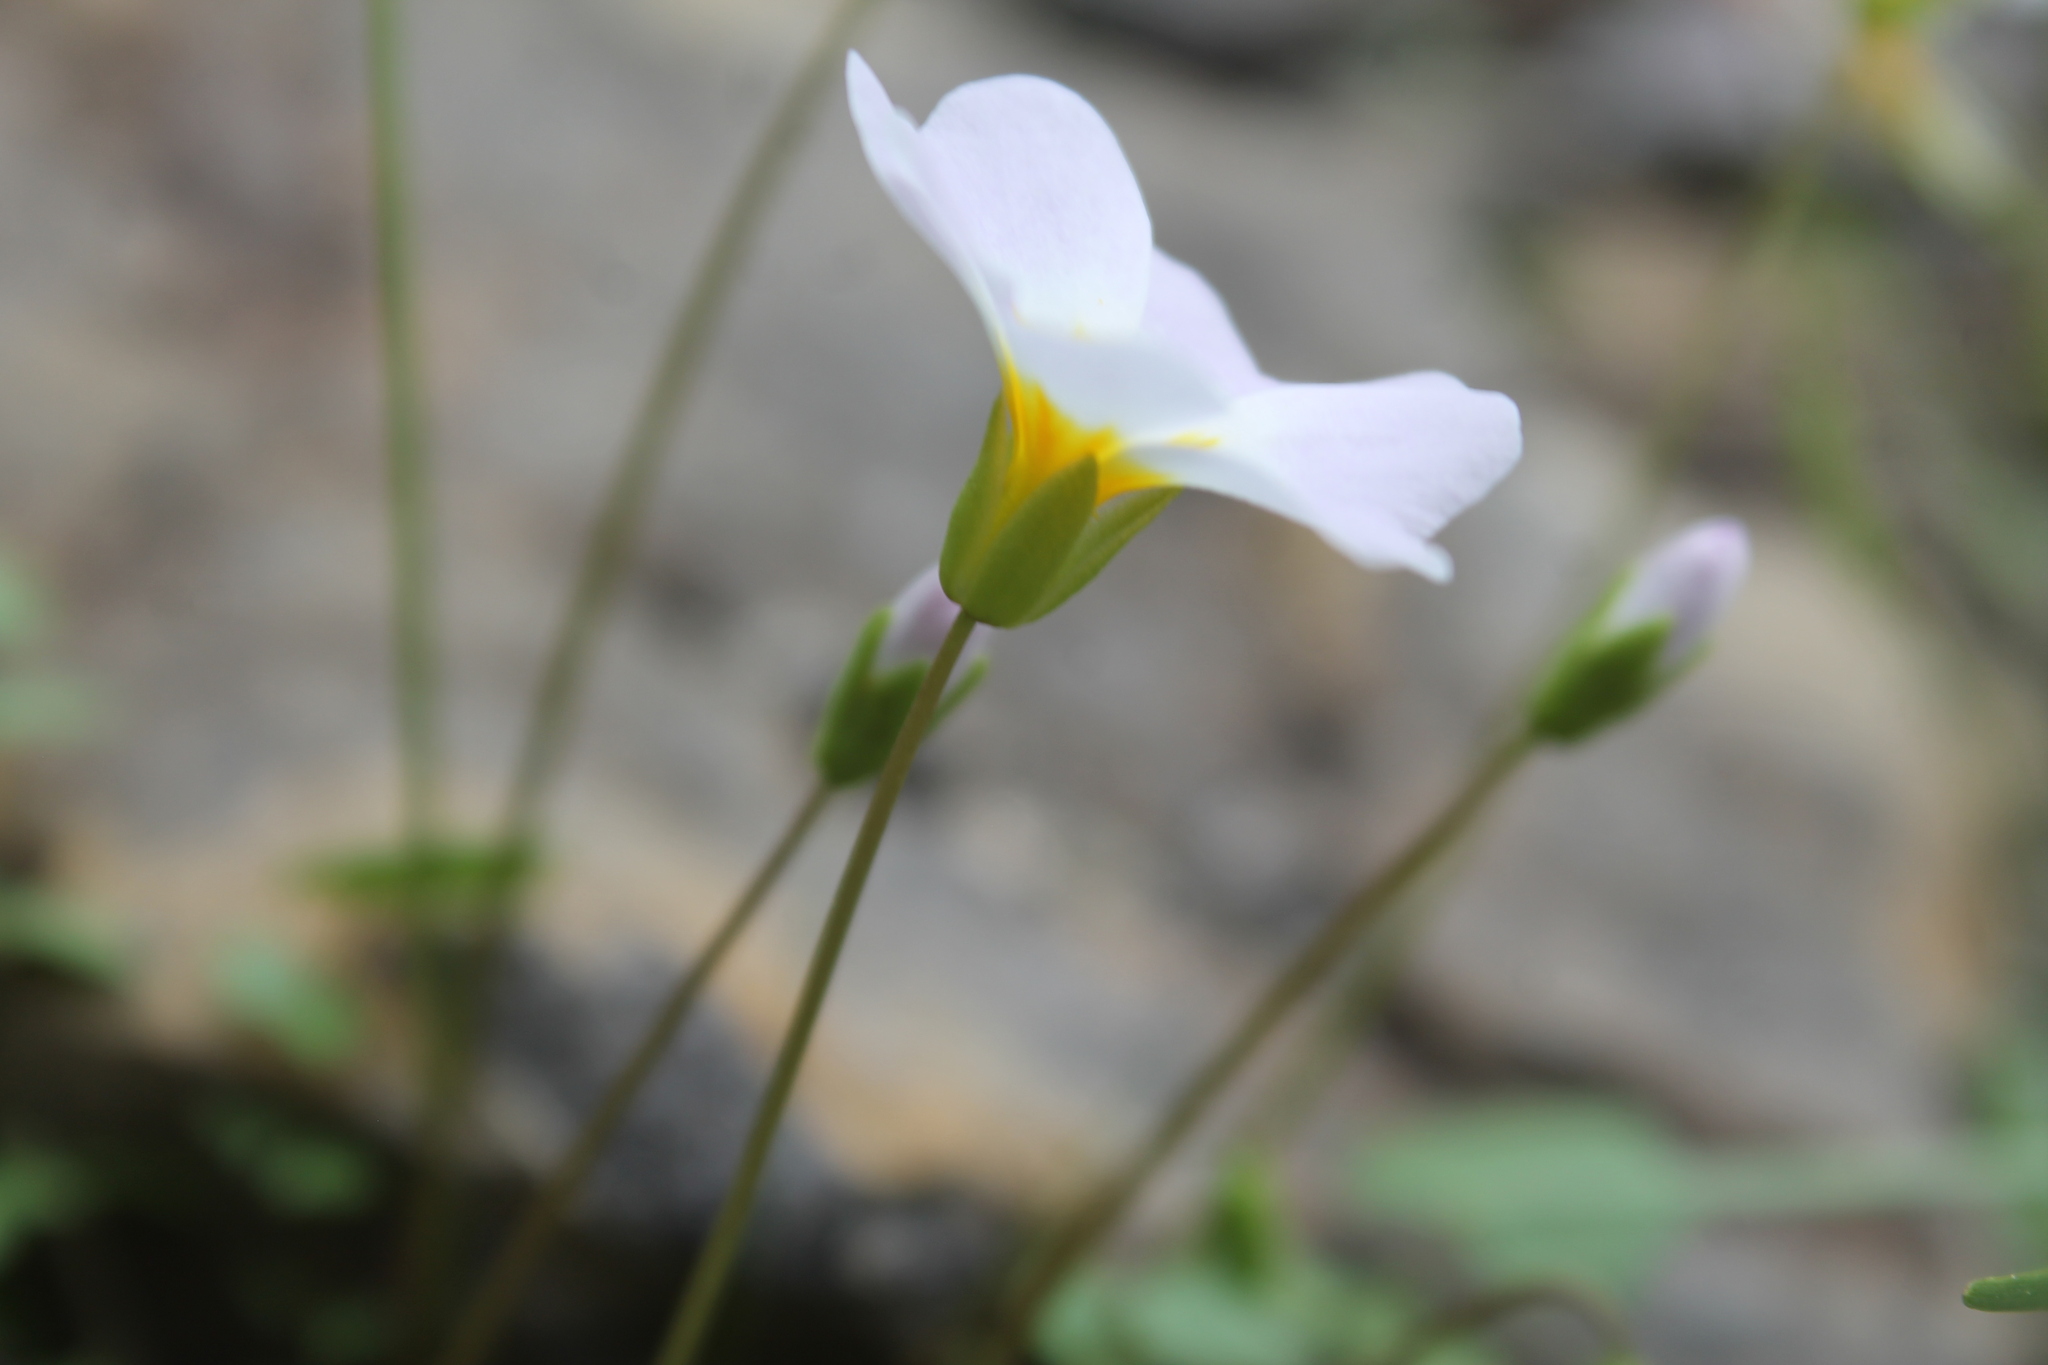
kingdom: Plantae
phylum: Tracheophyta
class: Magnoliopsida
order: Brassicales
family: Brassicaceae
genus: Leavenworthia
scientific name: Leavenworthia stylosa
